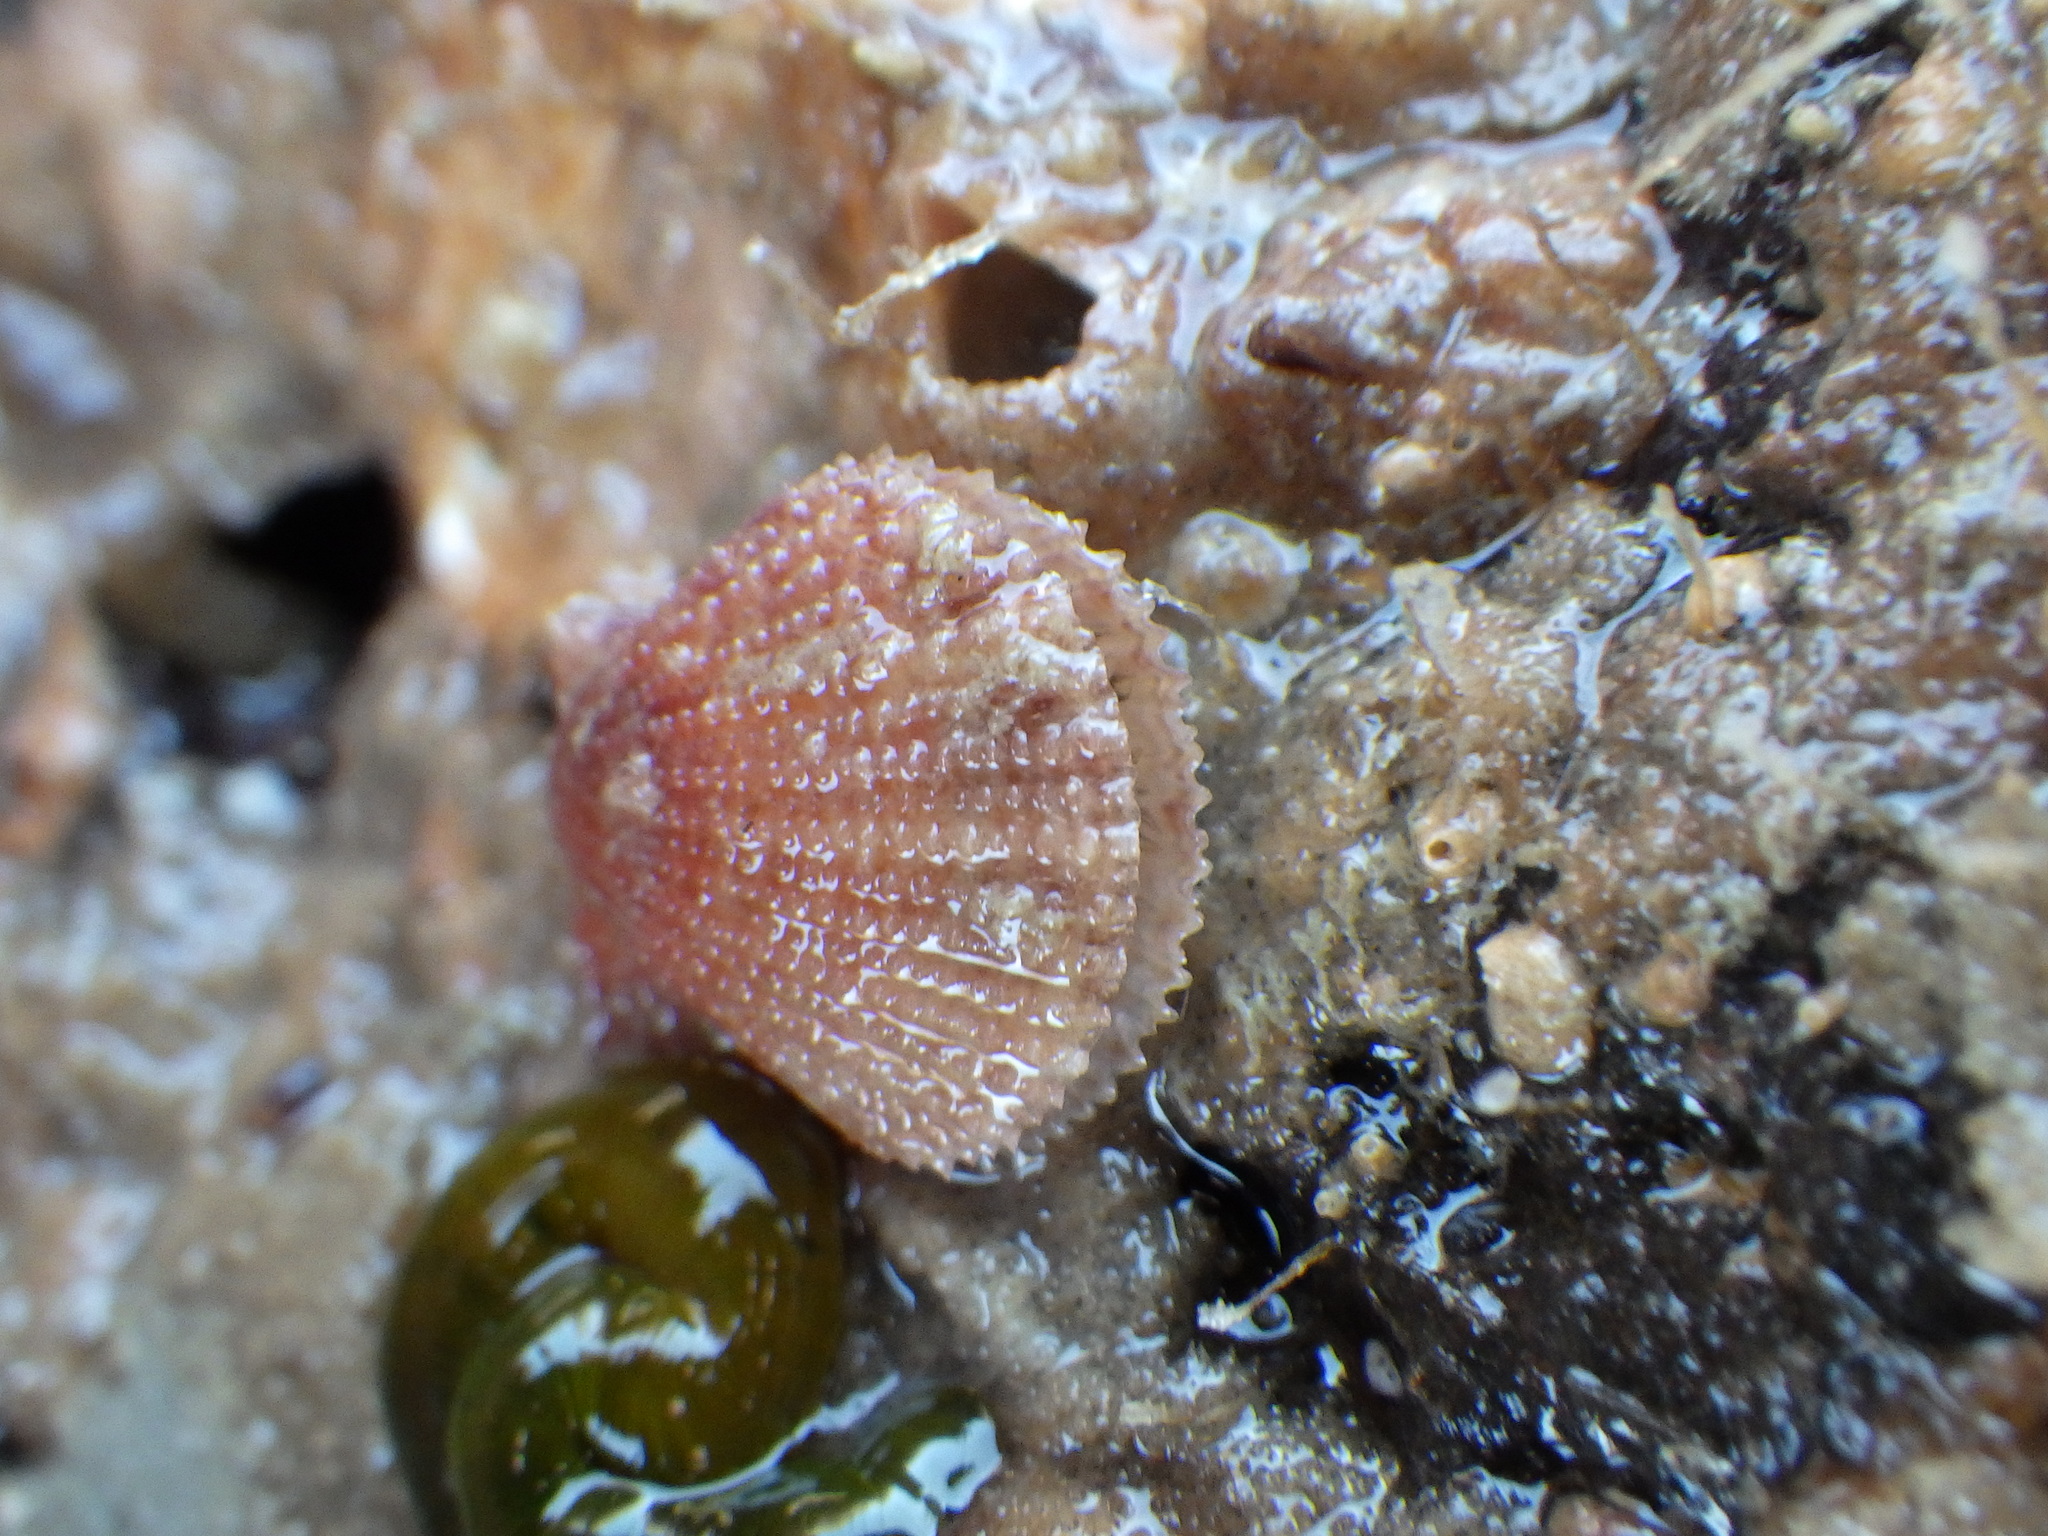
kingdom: Animalia
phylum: Mollusca
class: Bivalvia
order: Pectinida
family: Pectinidae
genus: Talochlamys
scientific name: Talochlamys zelandiae
